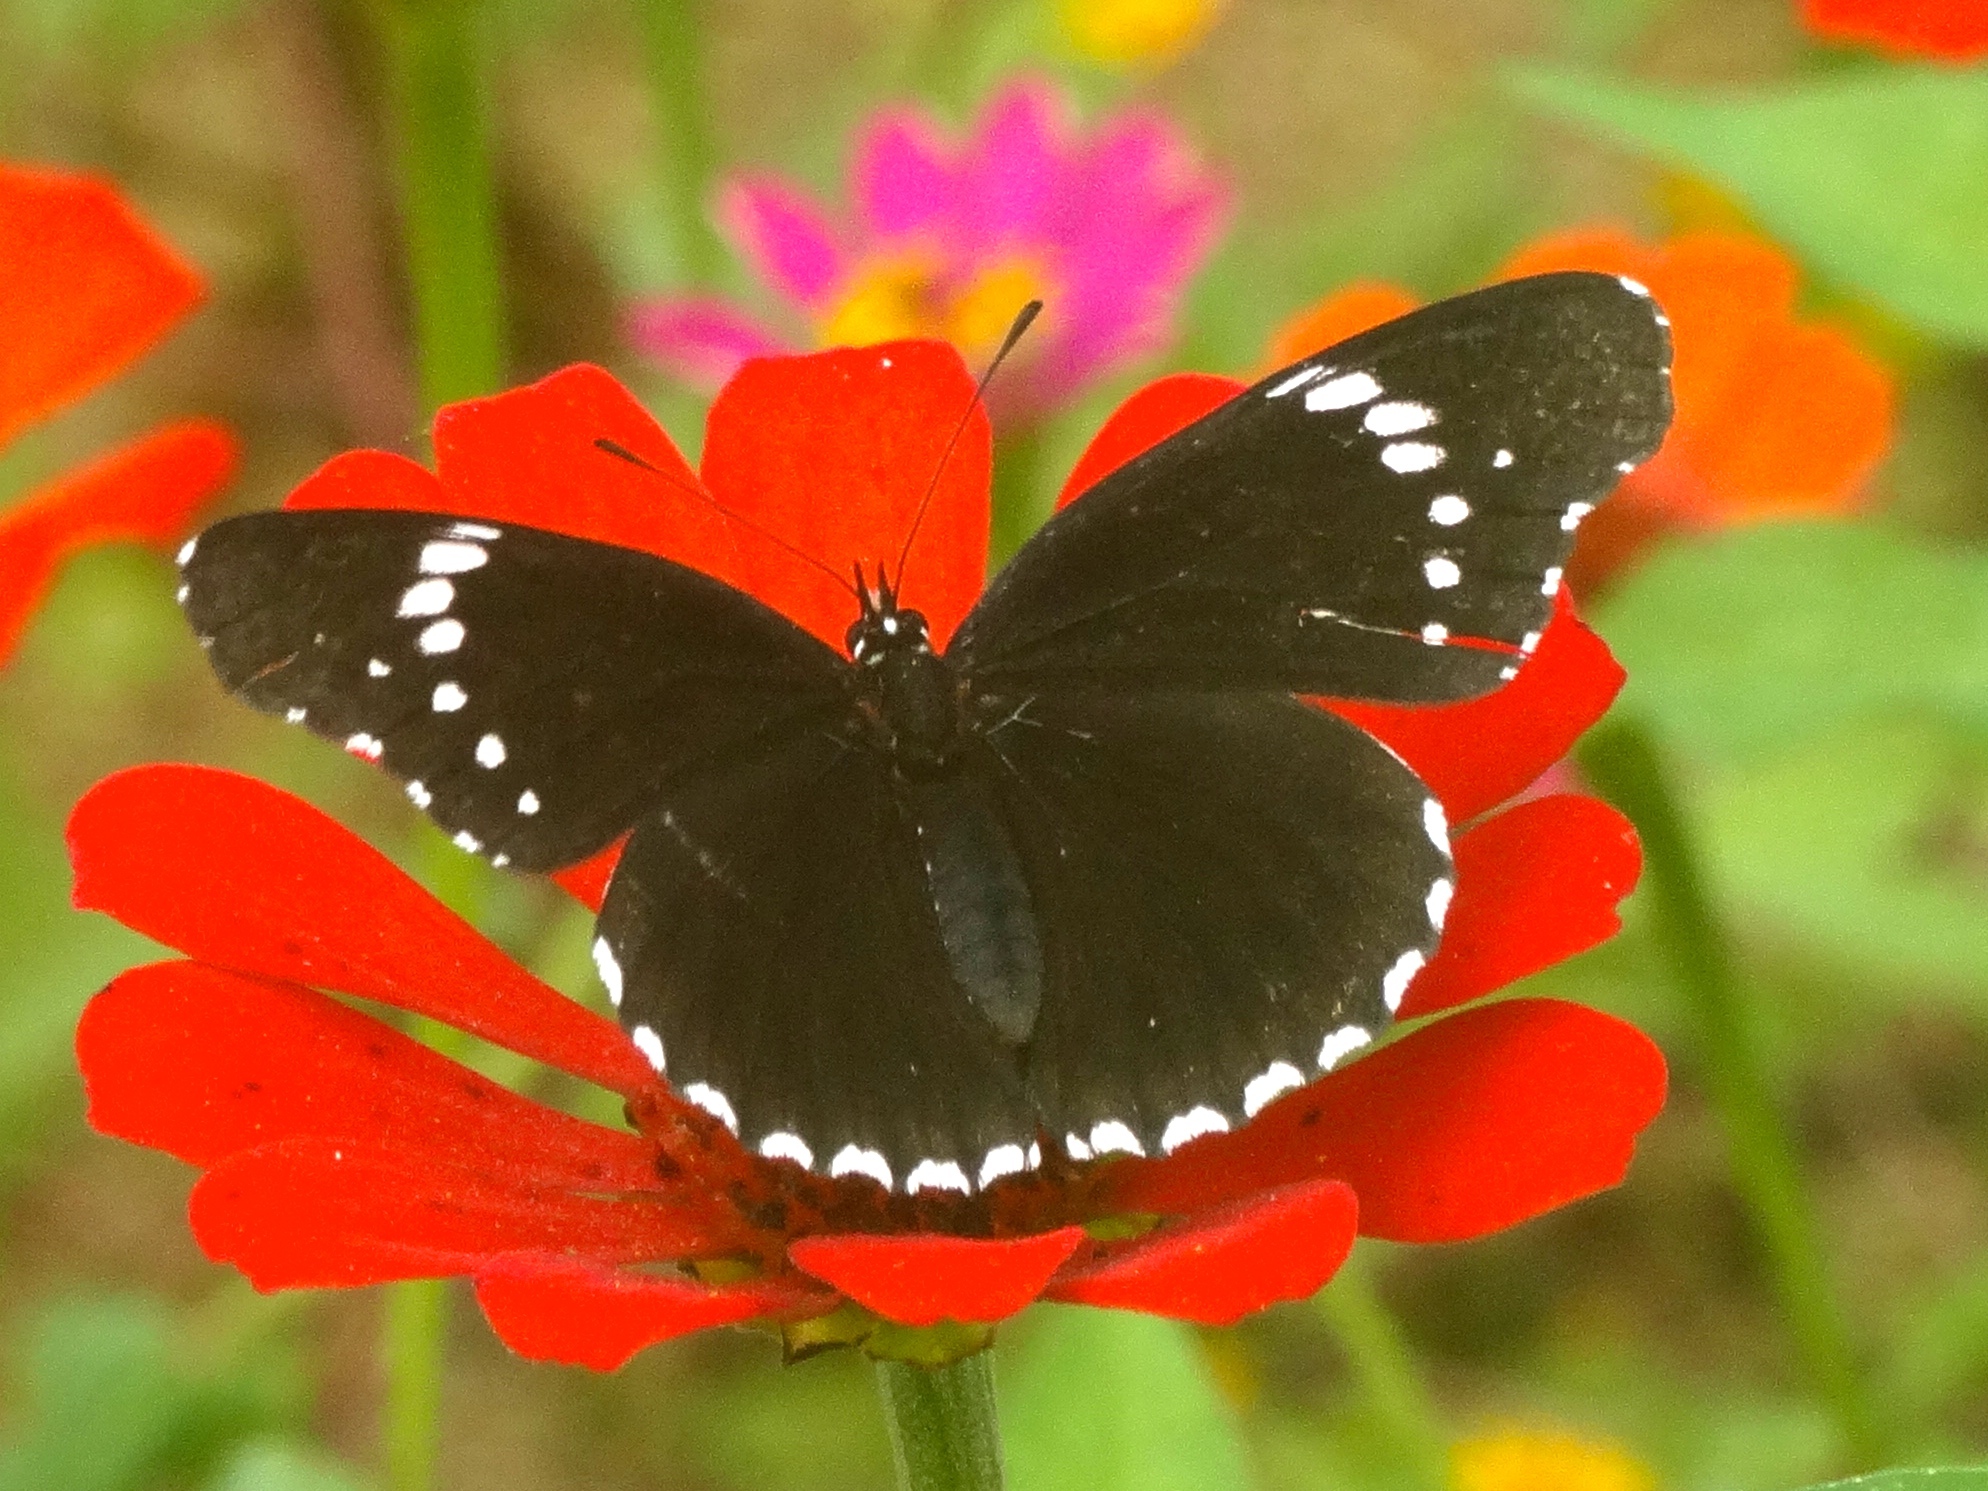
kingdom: Animalia
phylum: Arthropoda
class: Insecta
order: Lepidoptera
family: Nymphalidae
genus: Chlosyne
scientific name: Chlosyne hippodrome
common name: Simple patch
